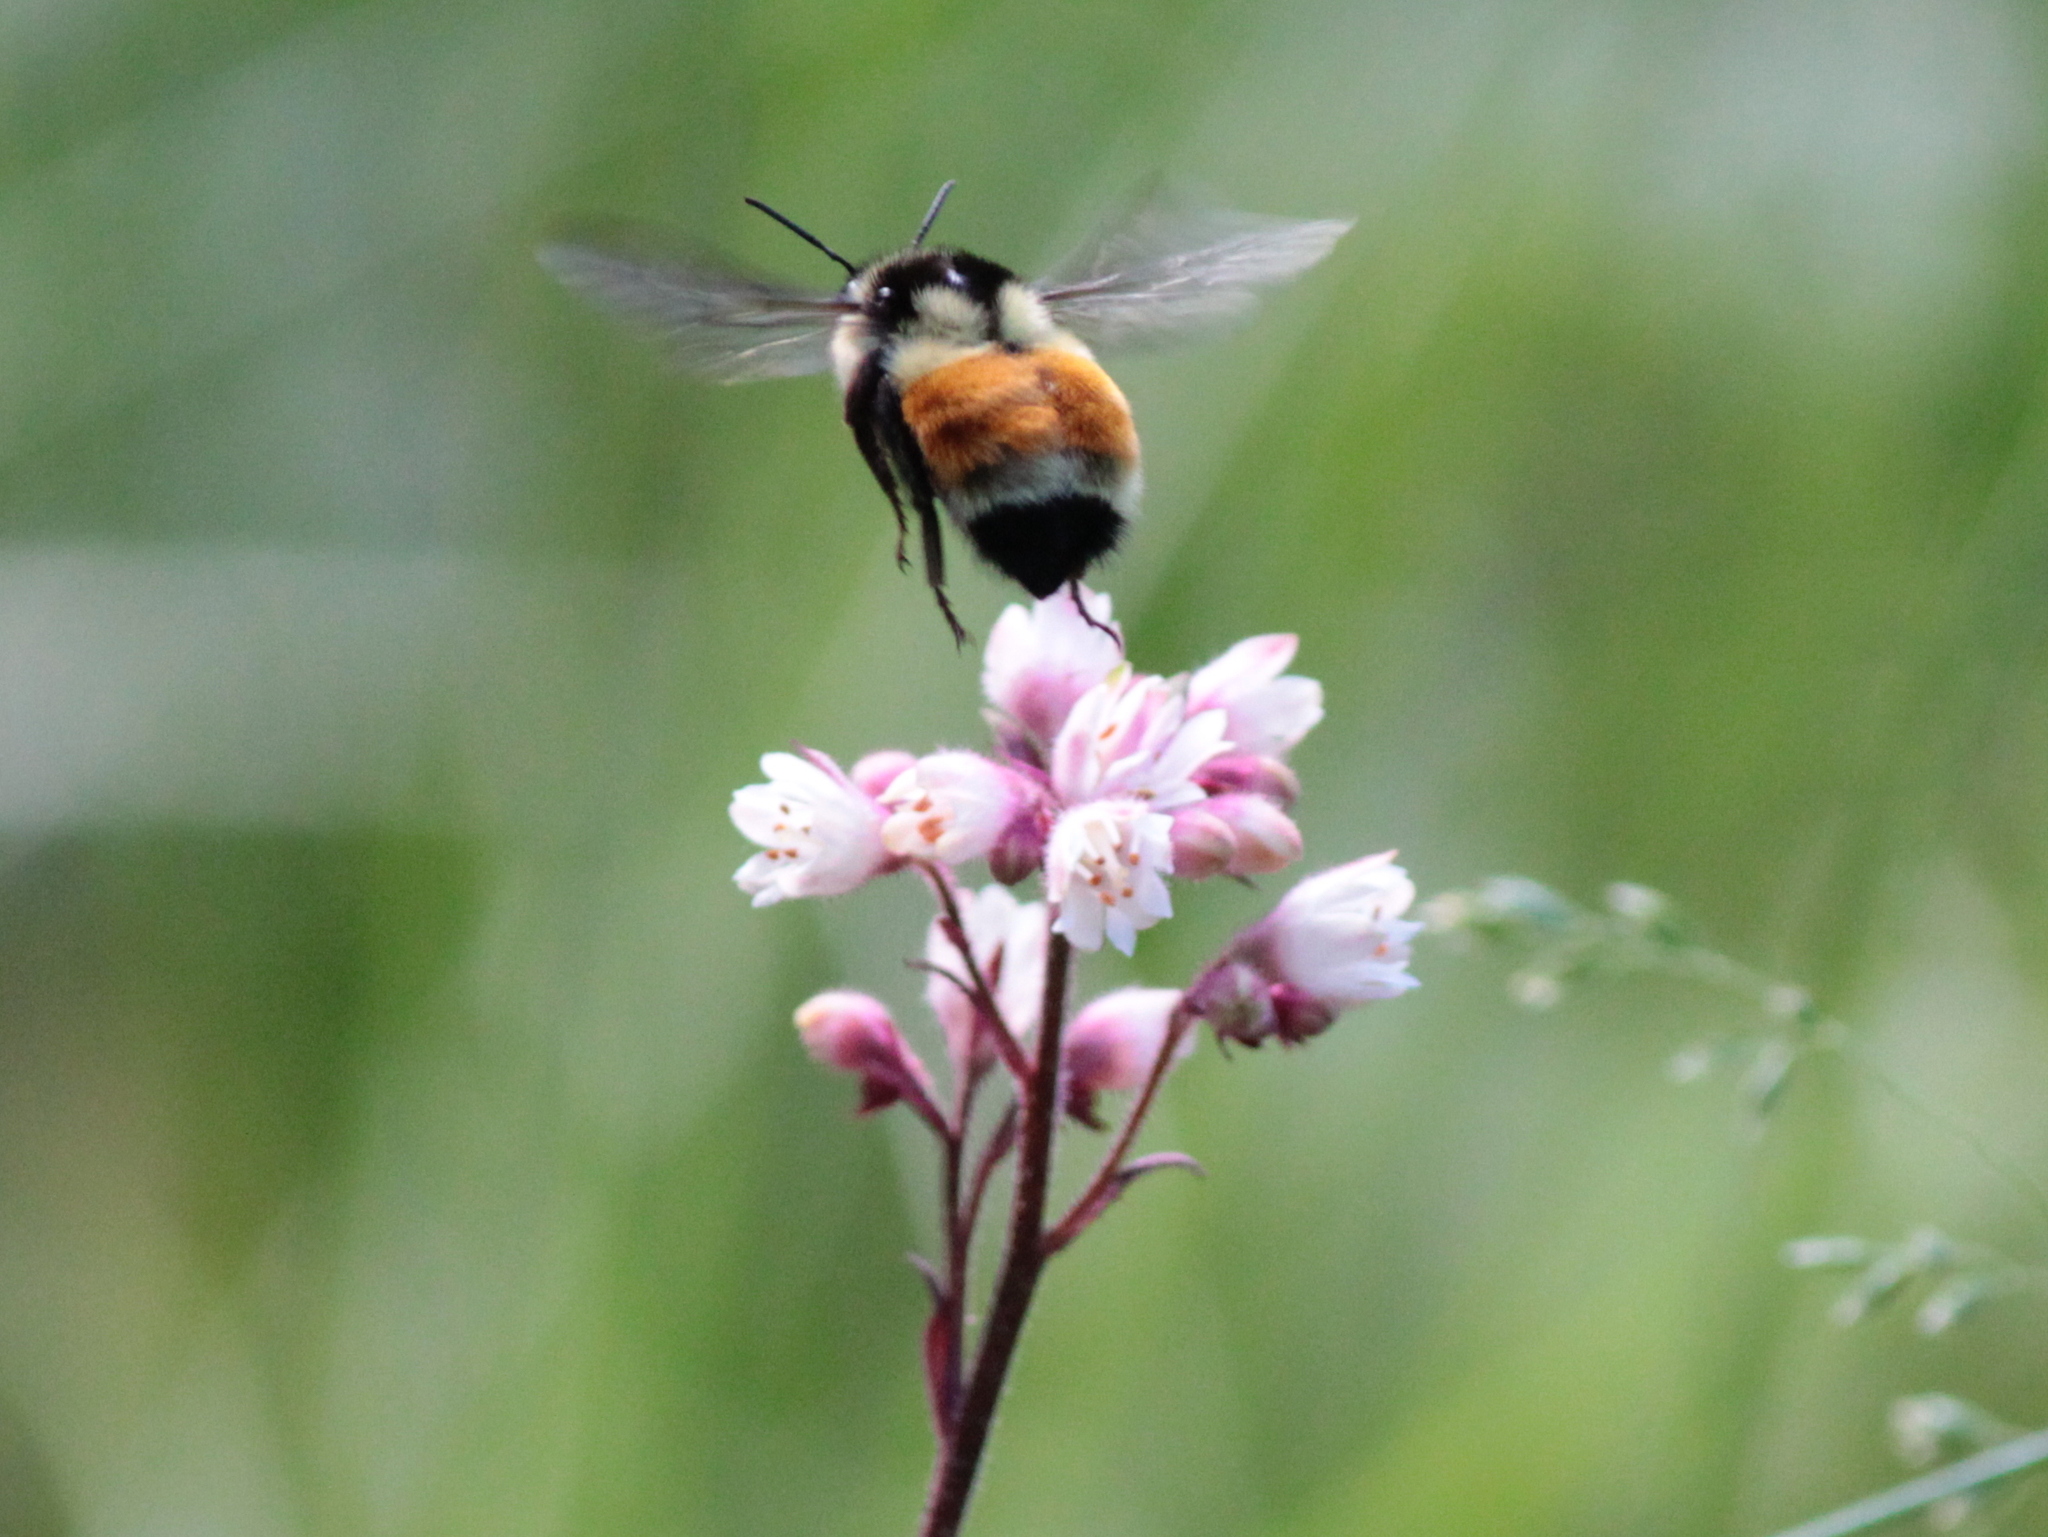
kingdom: Animalia
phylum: Arthropoda
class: Insecta
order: Hymenoptera
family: Apidae
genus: Bombus
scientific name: Bombus ternarius
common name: Tri-colored bumble bee
